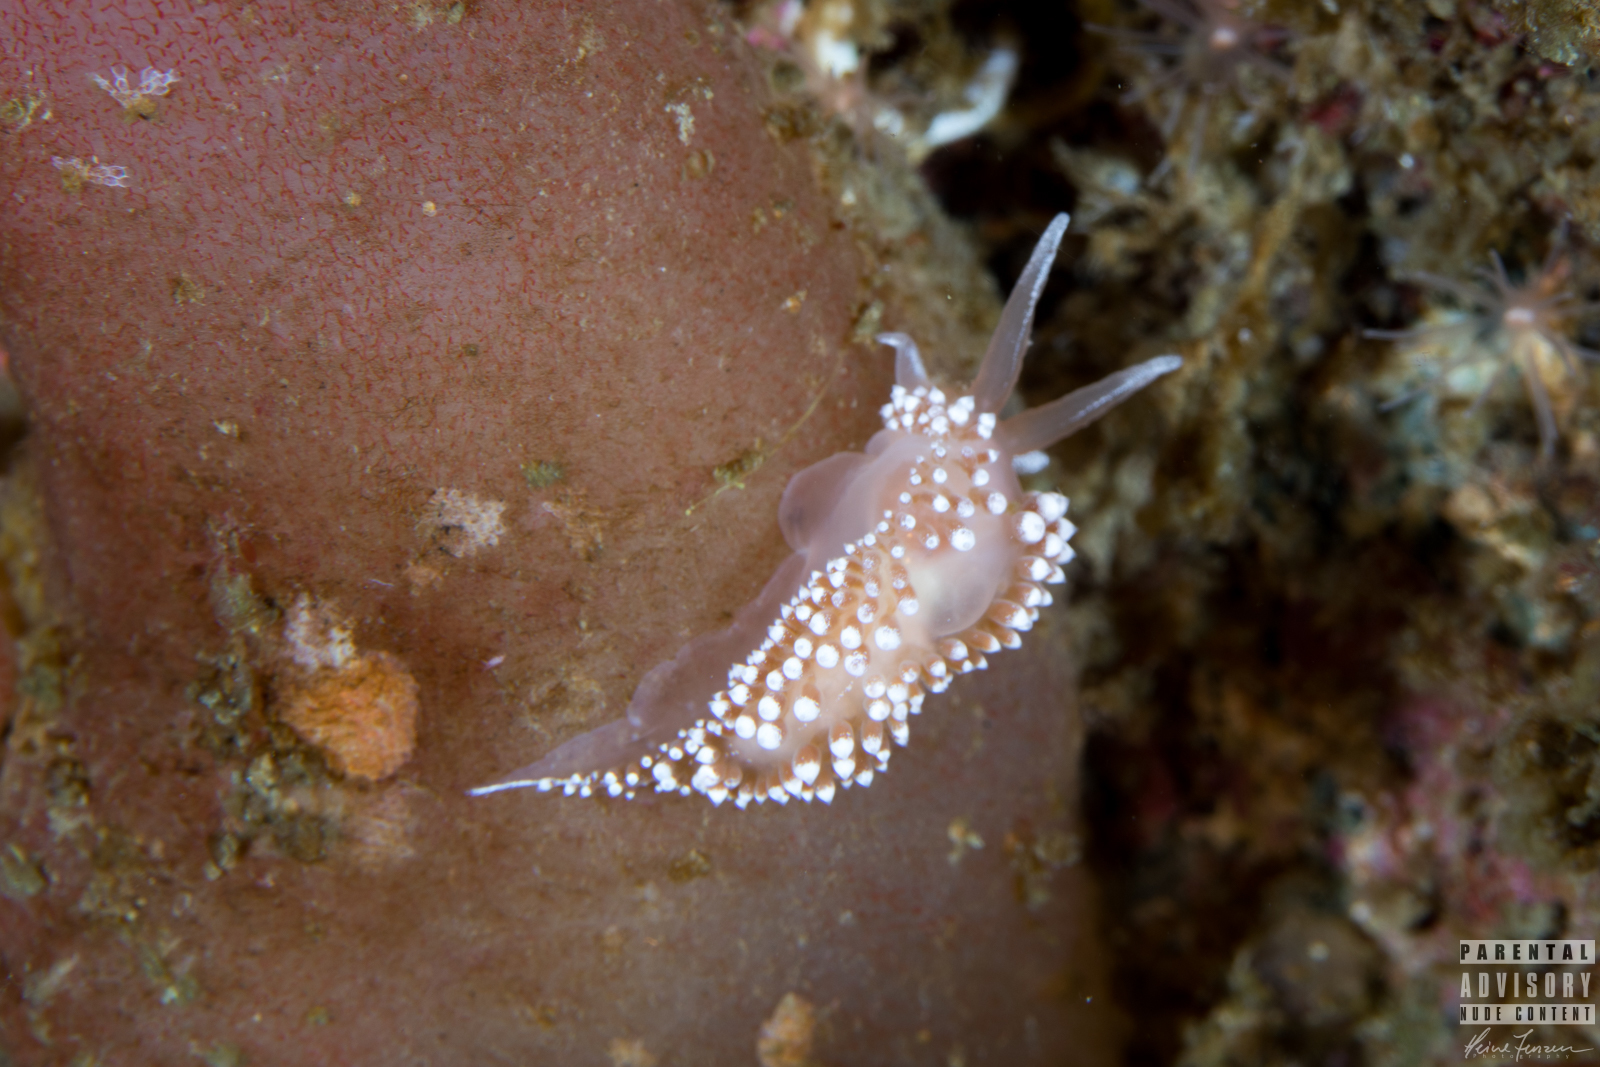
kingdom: Animalia
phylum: Mollusca
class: Gastropoda
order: Nudibranchia
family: Coryphellidae
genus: Coryphella
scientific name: Coryphella verrucosa
